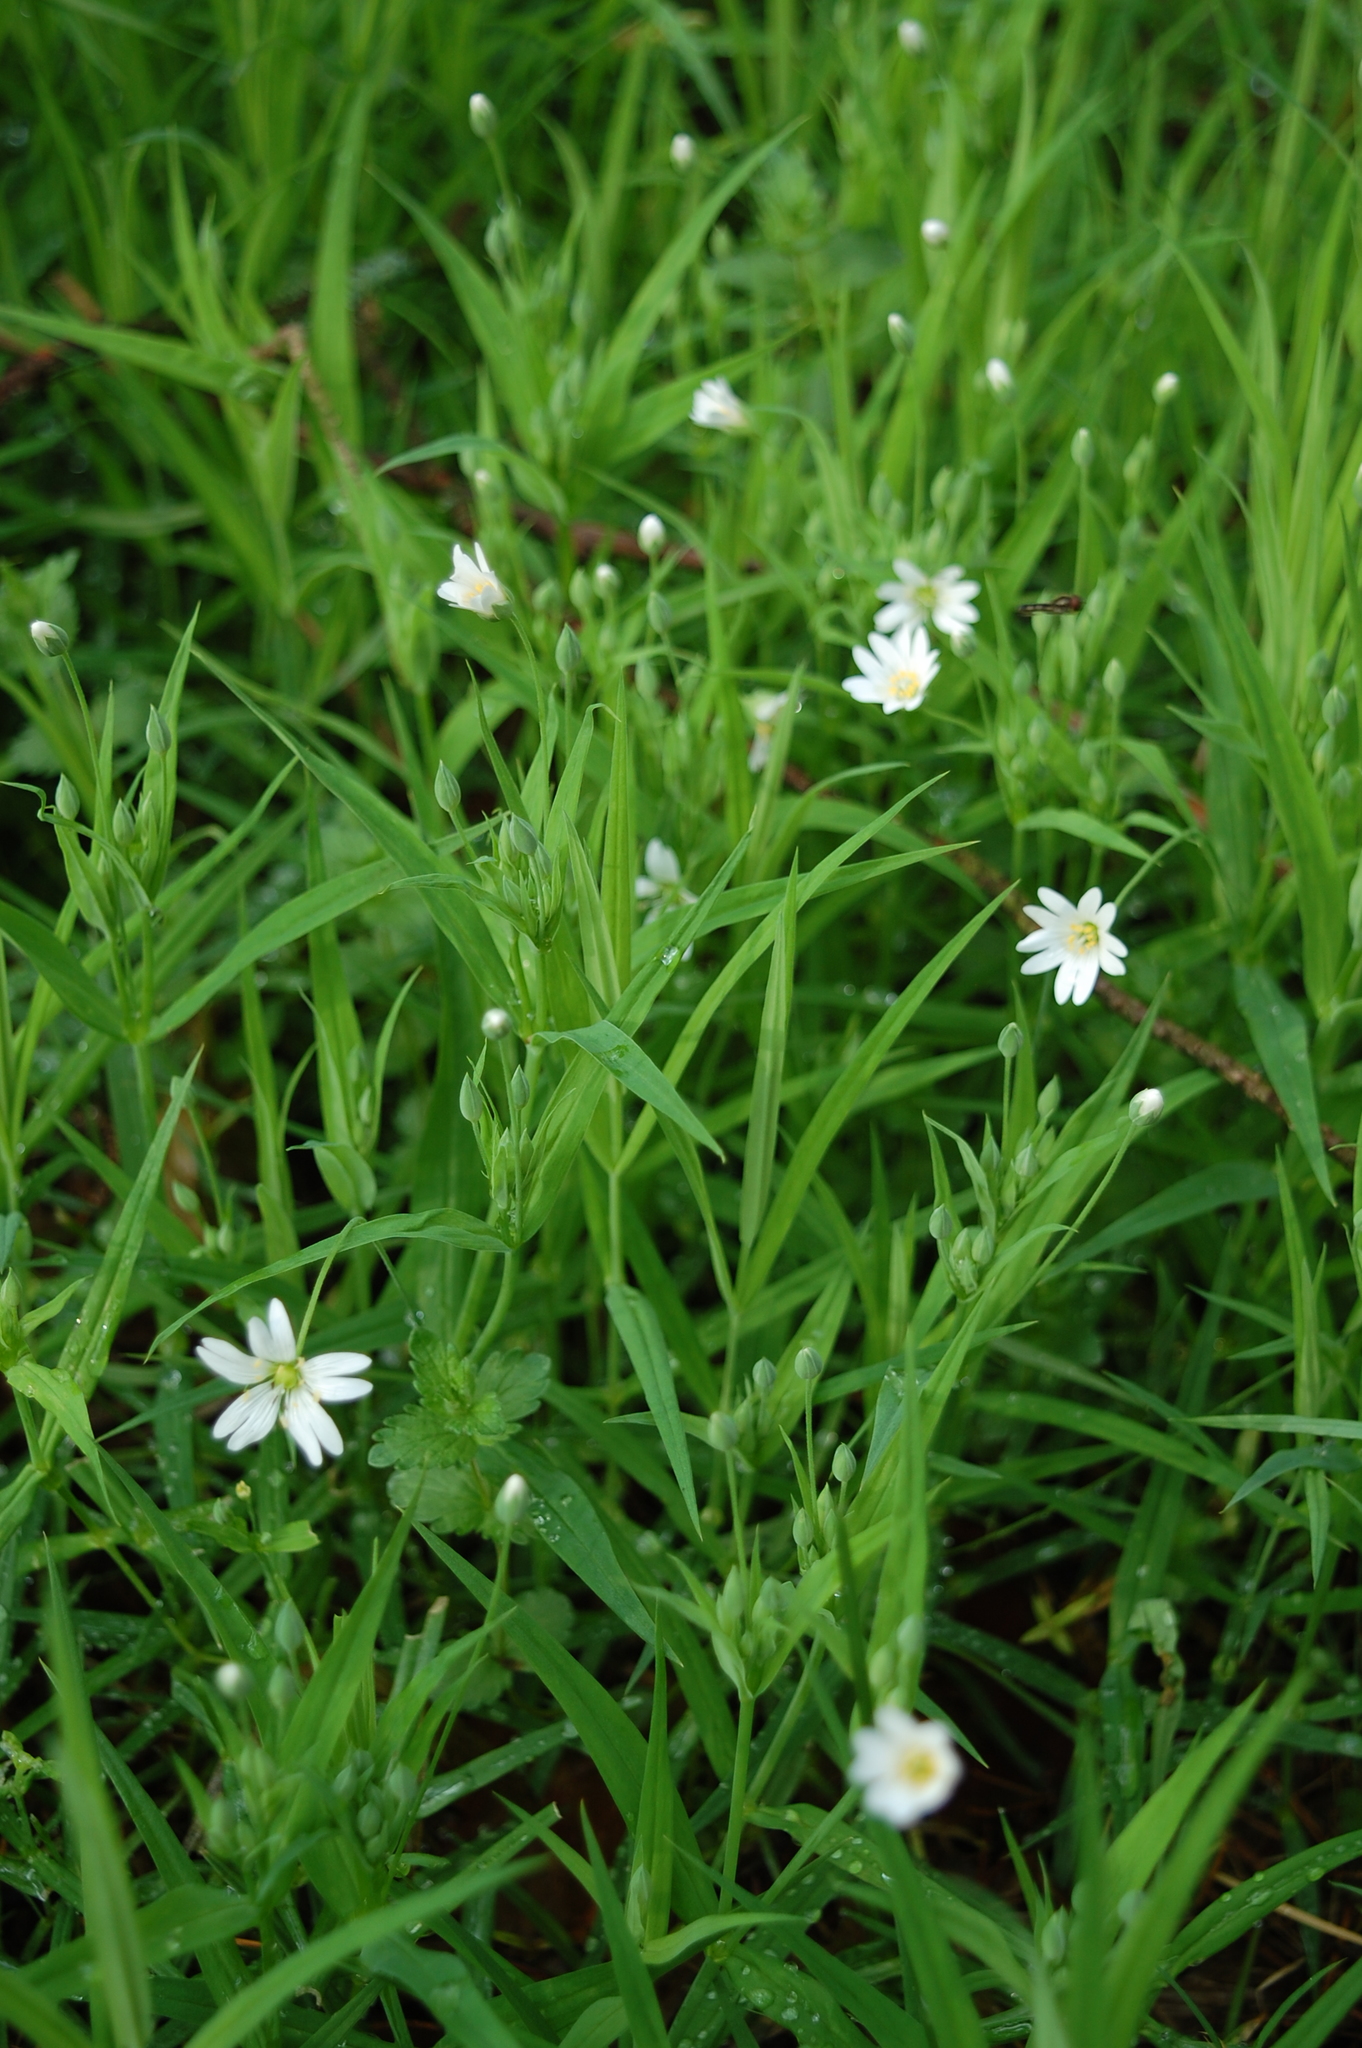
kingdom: Plantae
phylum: Tracheophyta
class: Magnoliopsida
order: Caryophyllales
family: Caryophyllaceae
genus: Rabelera
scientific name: Rabelera holostea
